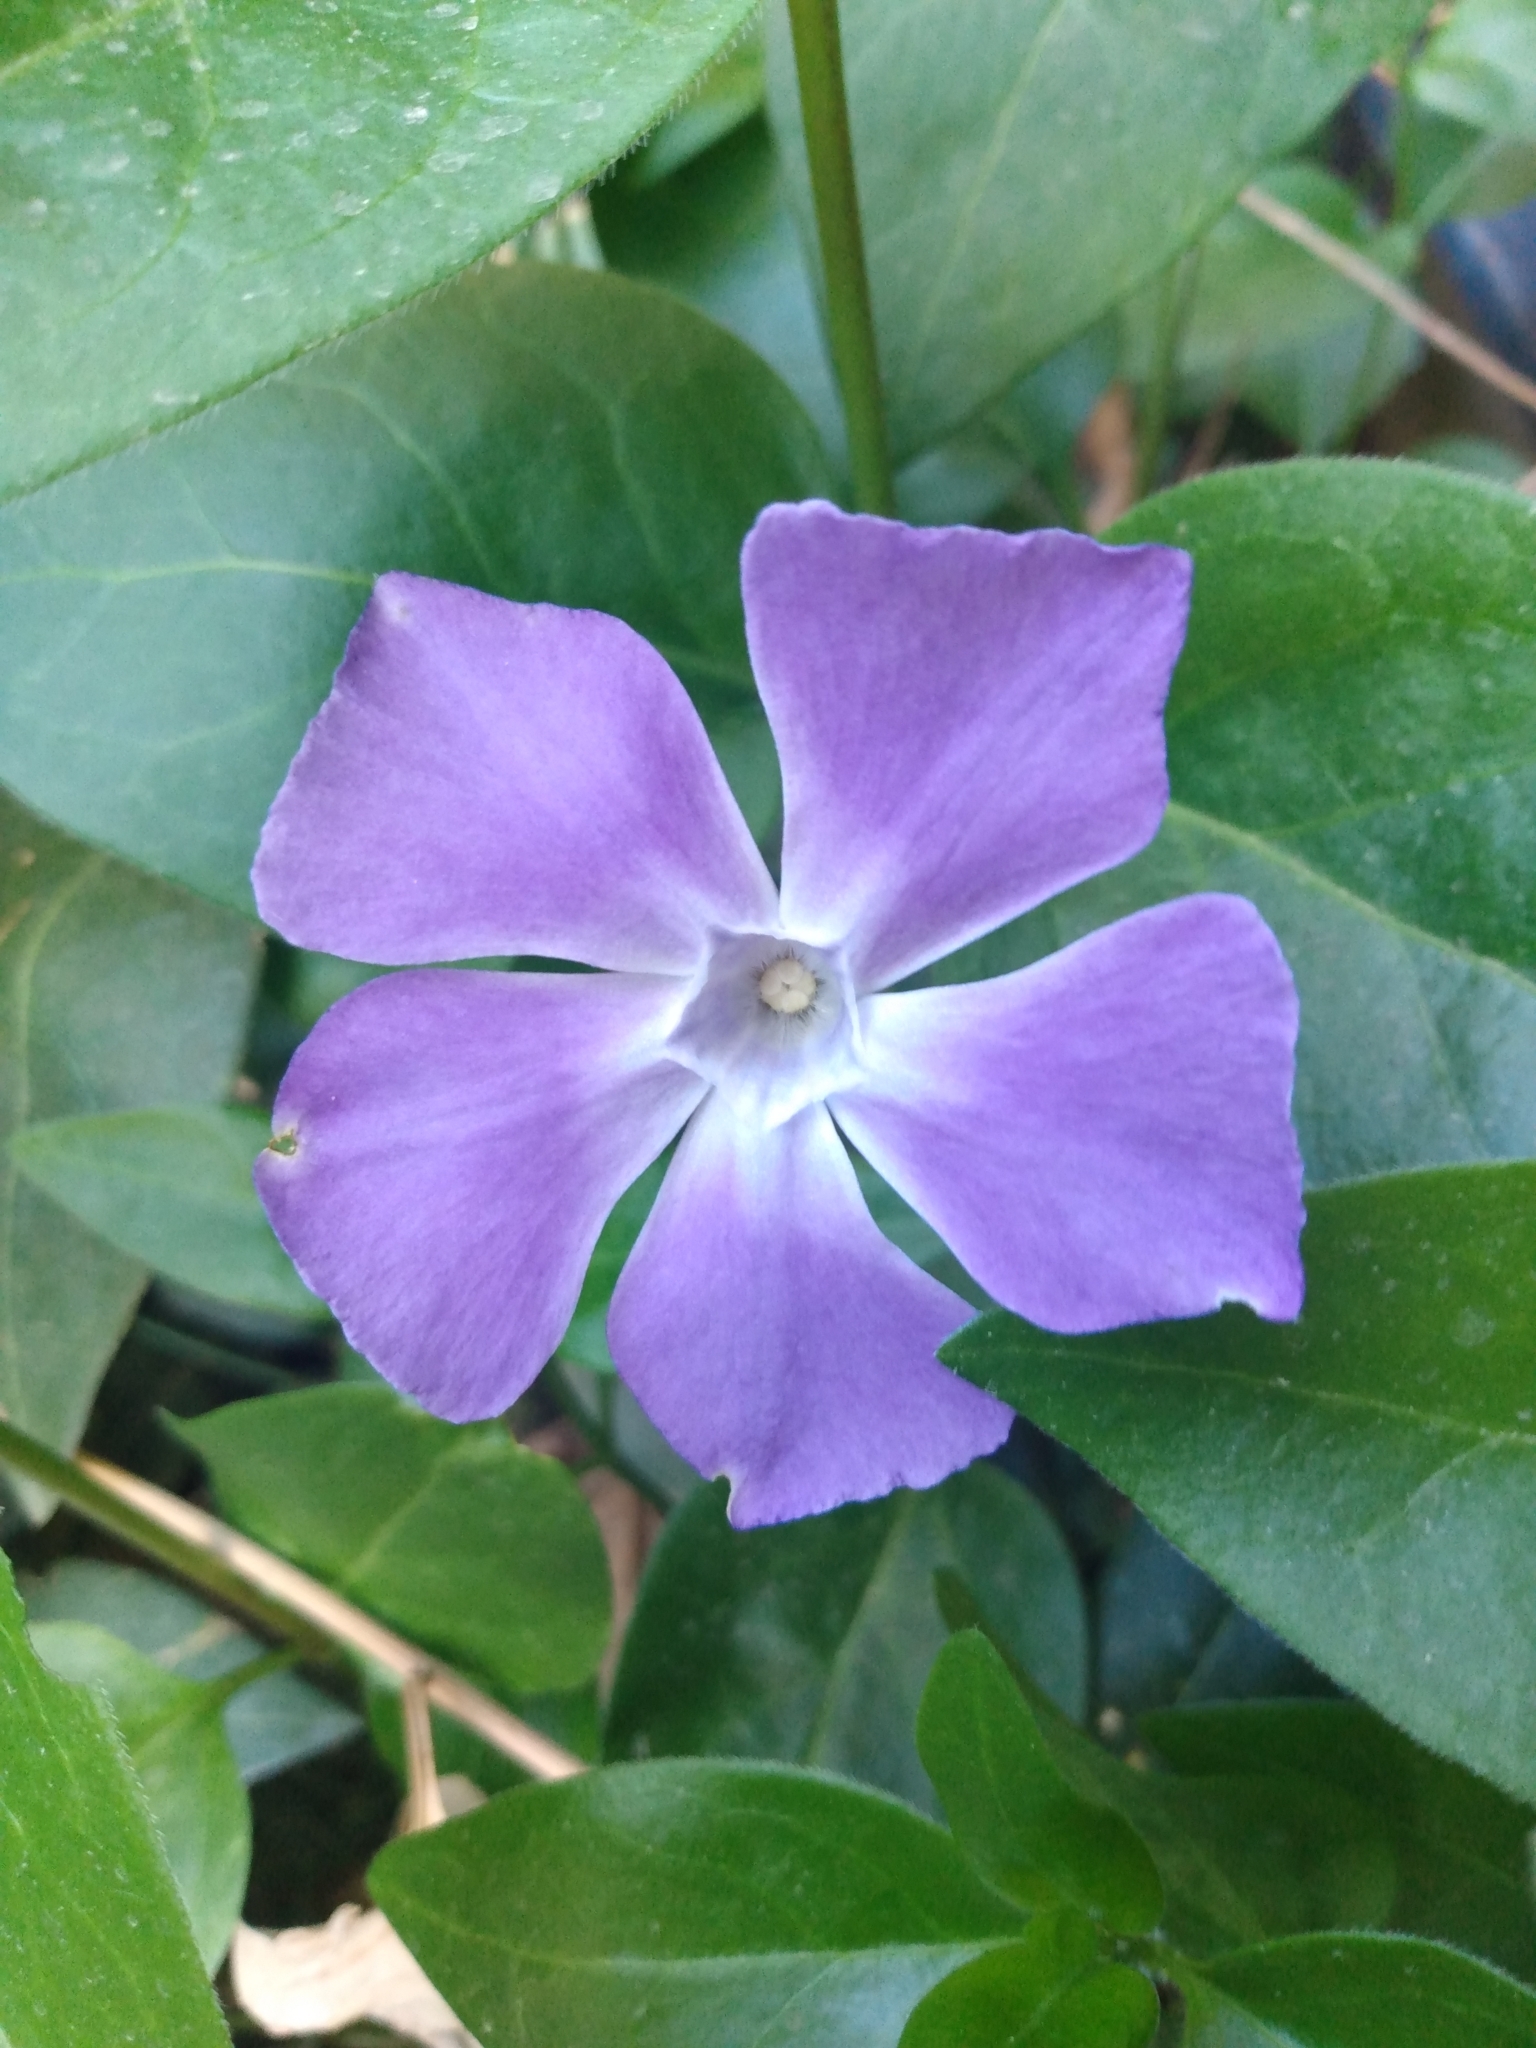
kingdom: Plantae
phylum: Tracheophyta
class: Magnoliopsida
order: Gentianales
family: Apocynaceae
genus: Vinca
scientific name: Vinca major
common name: Greater periwinkle
